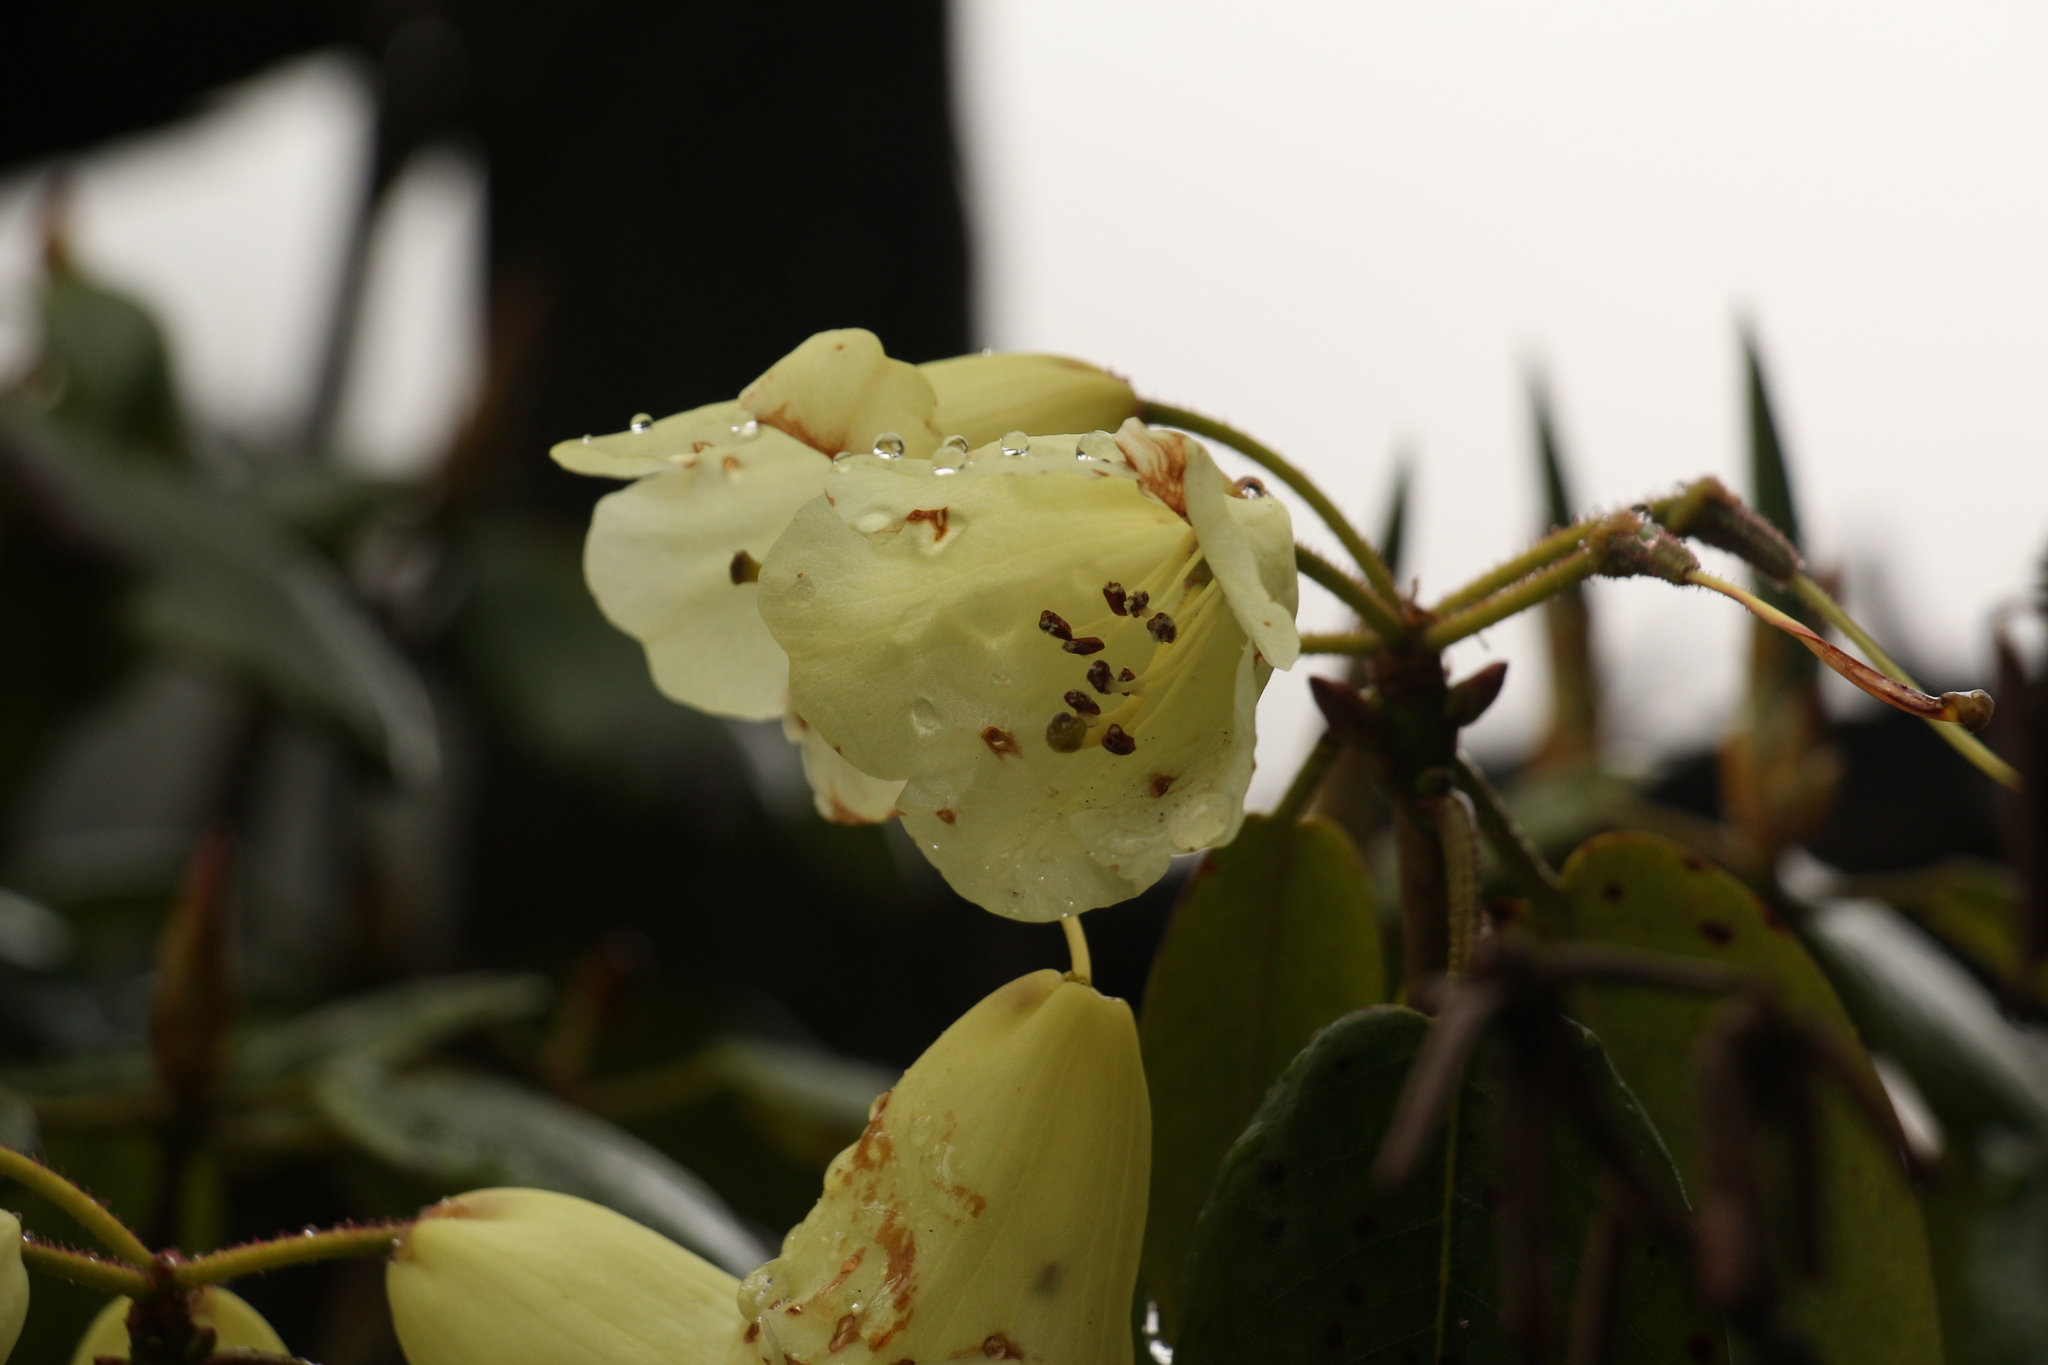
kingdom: Plantae
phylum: Tracheophyta
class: Magnoliopsida
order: Ericales
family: Ericaceae
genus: Rhododendron
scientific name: Rhododendron campylocarpum
